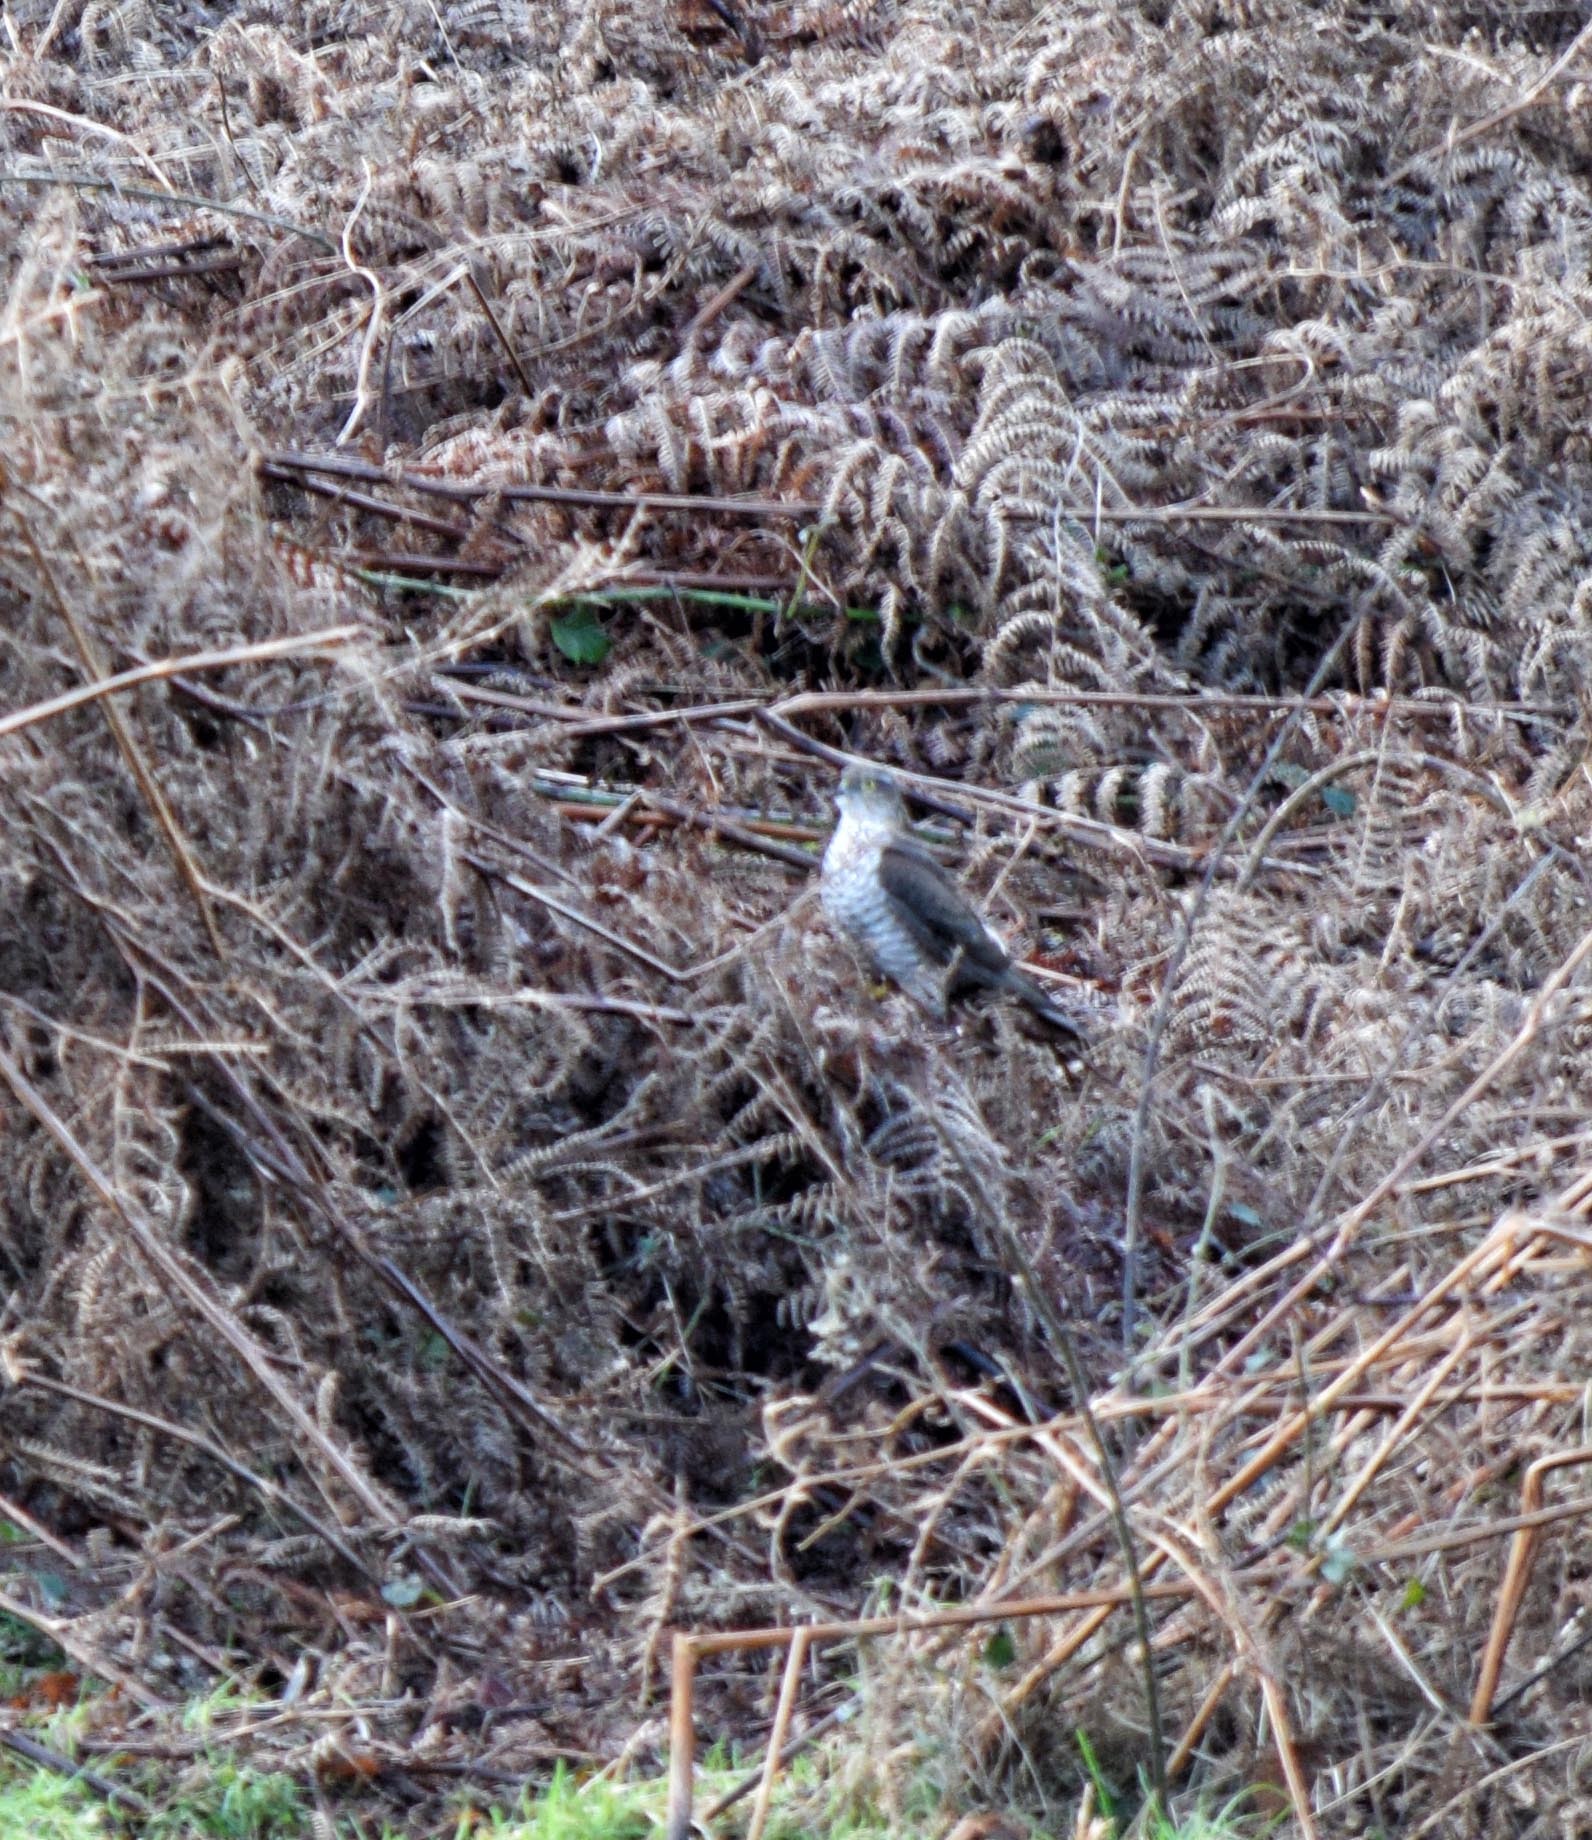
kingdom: Animalia
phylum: Chordata
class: Aves
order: Accipitriformes
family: Accipitridae
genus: Accipiter
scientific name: Accipiter nisus
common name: Eurasian sparrowhawk
